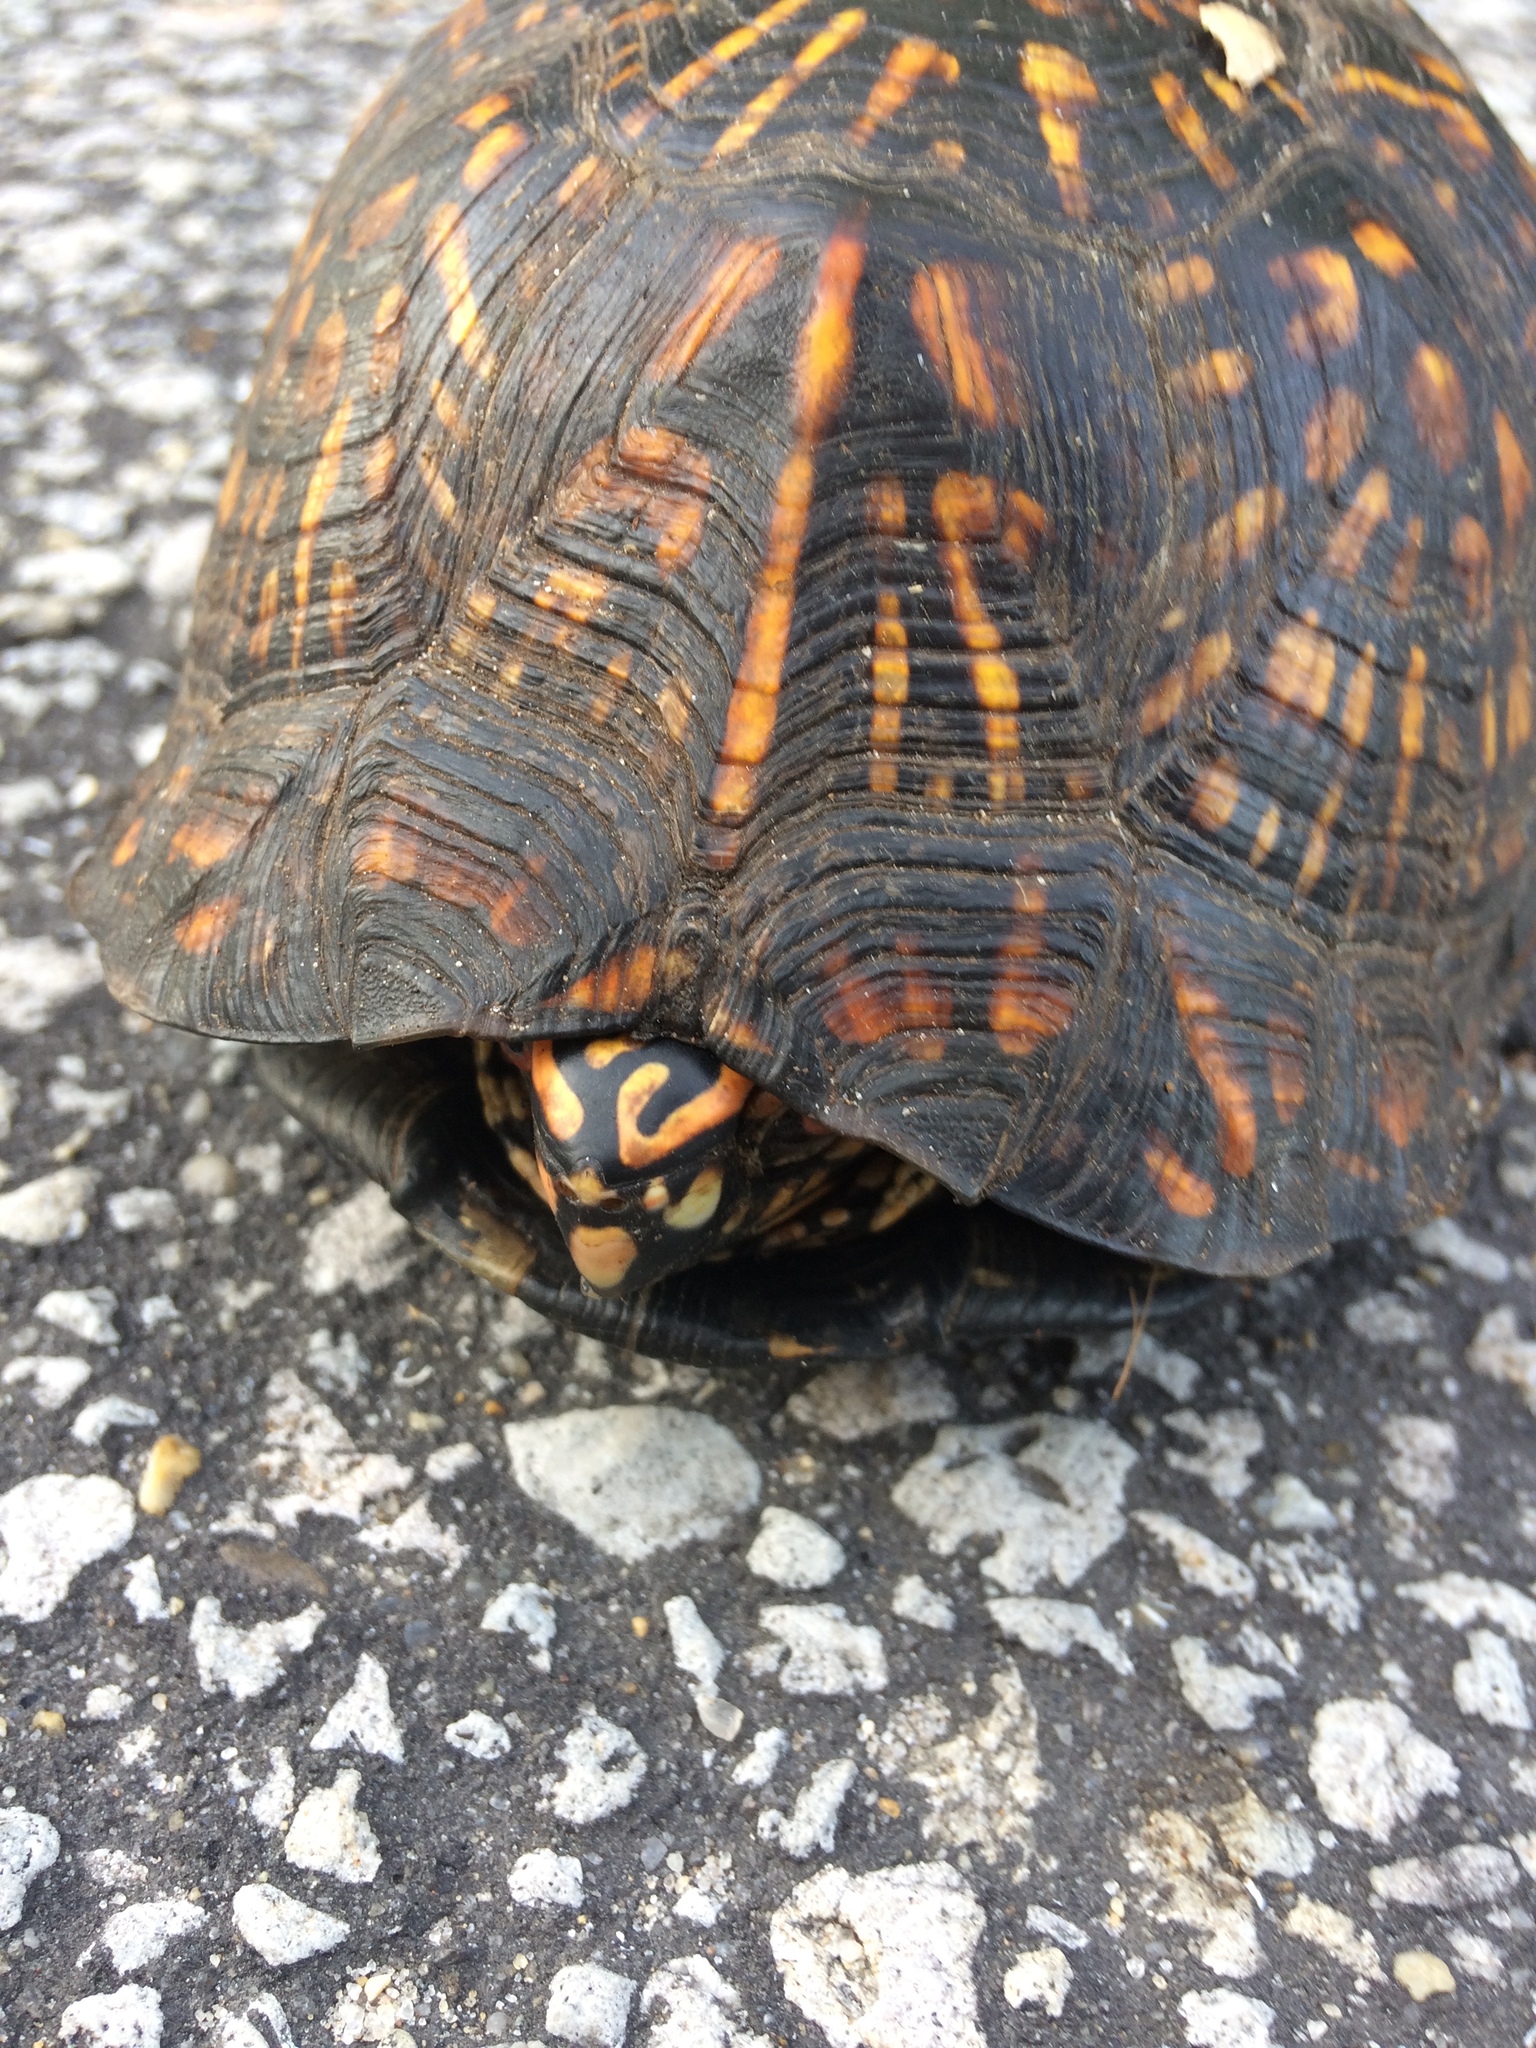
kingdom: Animalia
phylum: Chordata
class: Testudines
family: Emydidae
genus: Terrapene
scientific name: Terrapene carolina
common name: Common box turtle
